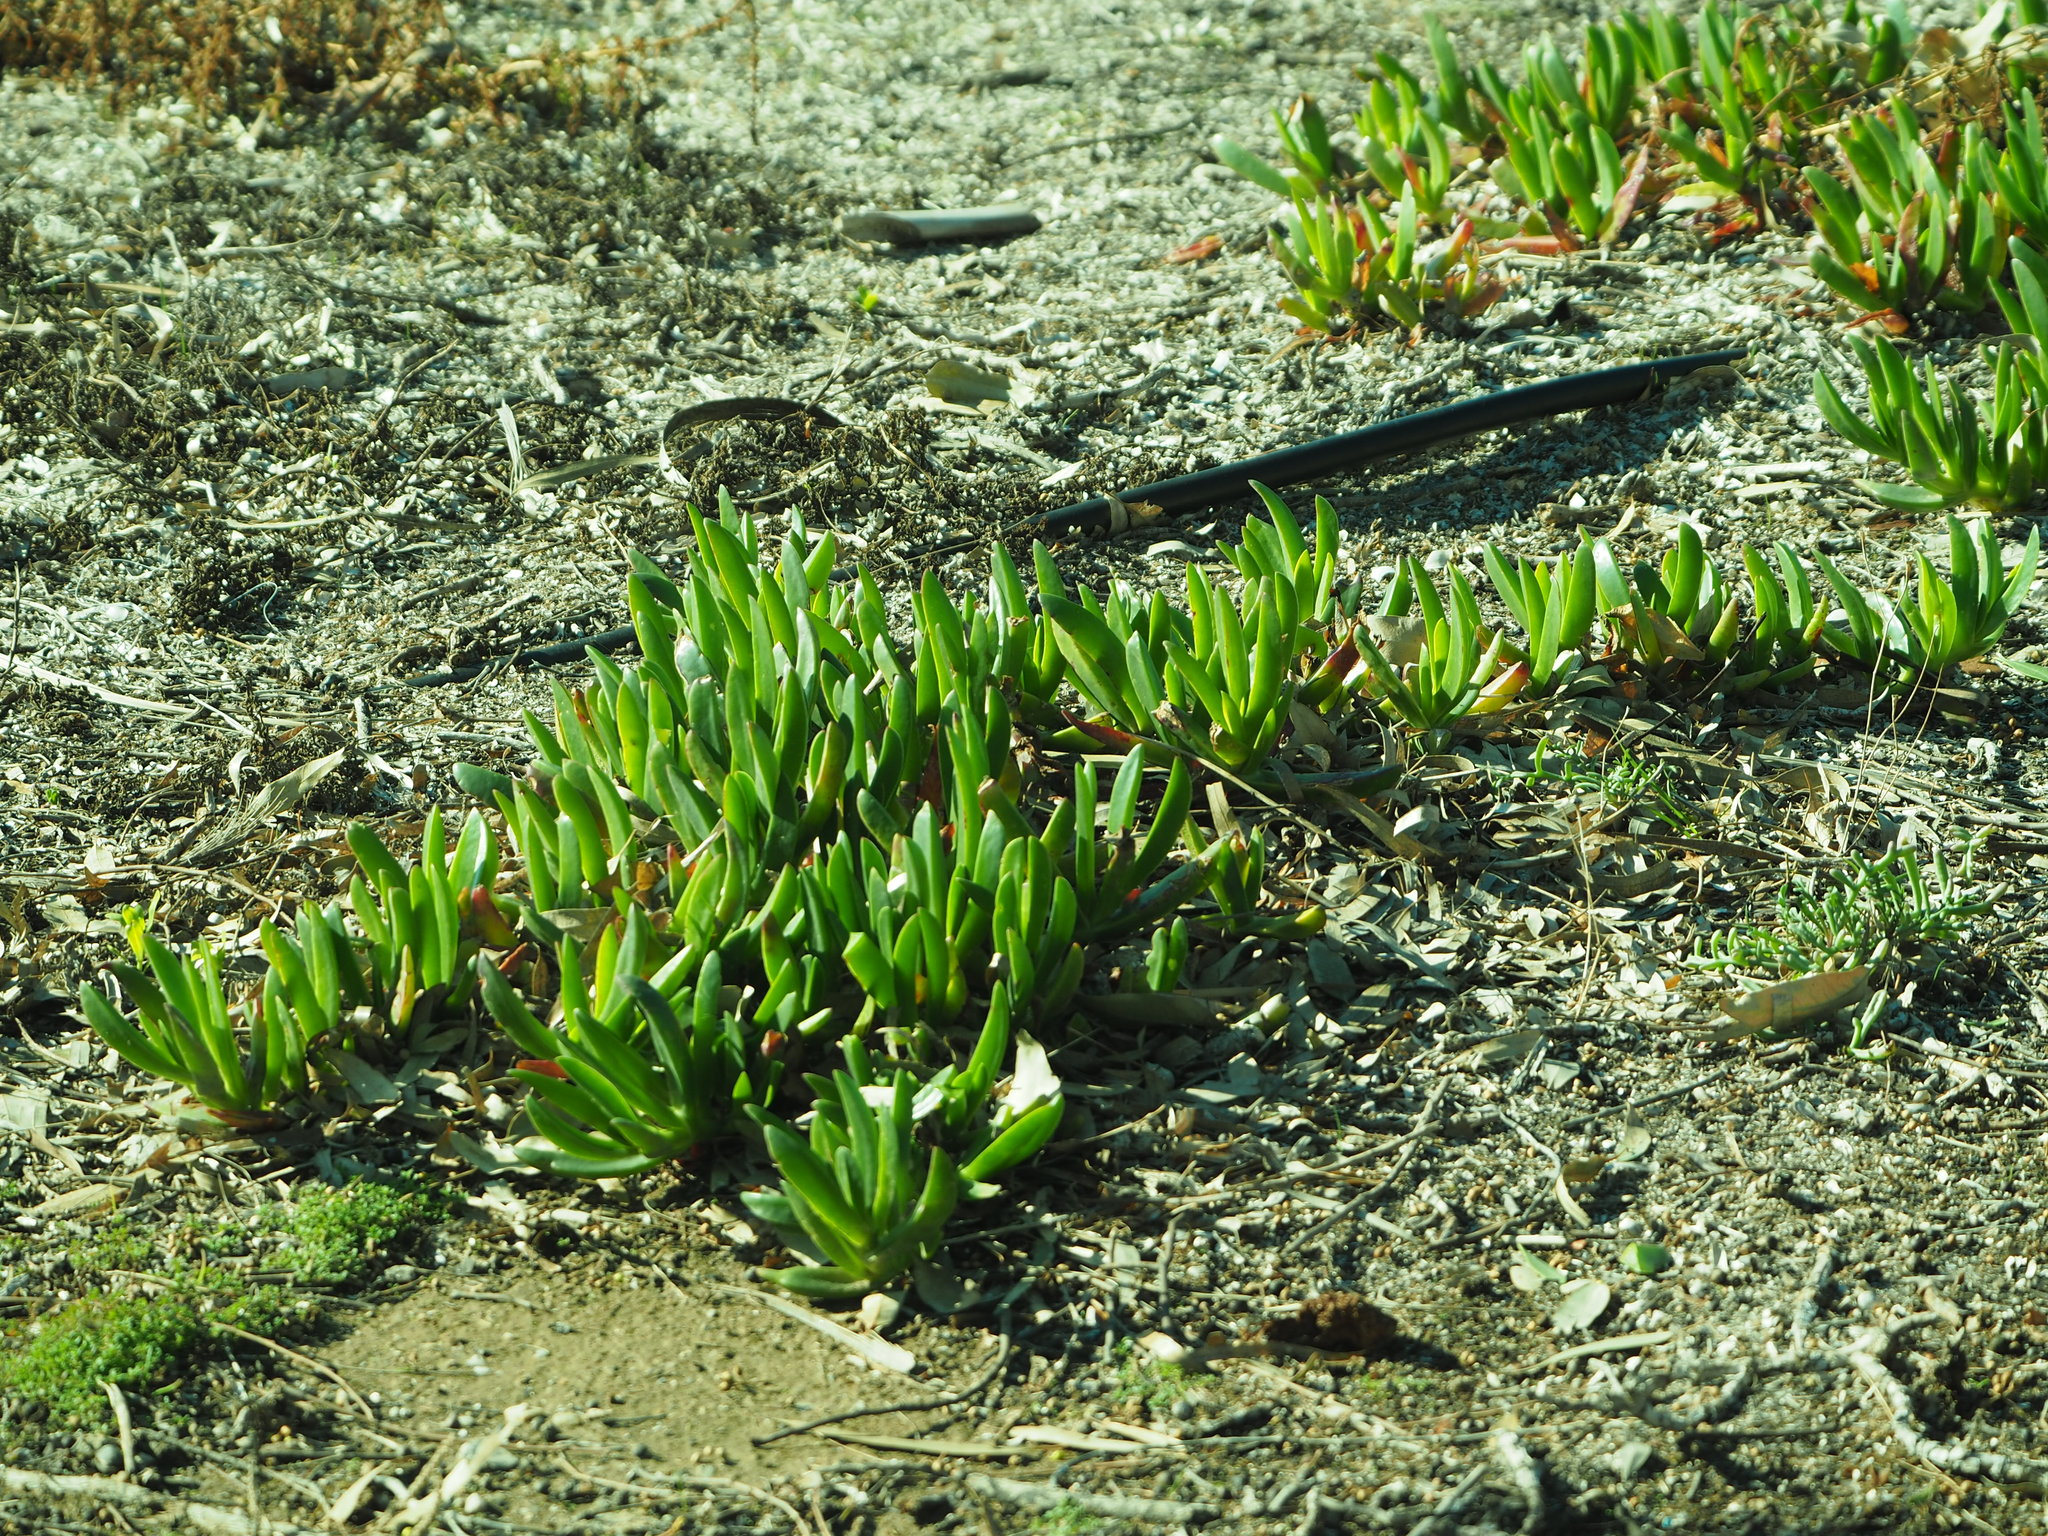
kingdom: Plantae
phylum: Tracheophyta
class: Magnoliopsida
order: Caryophyllales
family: Aizoaceae
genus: Carpobrotus
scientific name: Carpobrotus edulis
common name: Hottentot-fig
